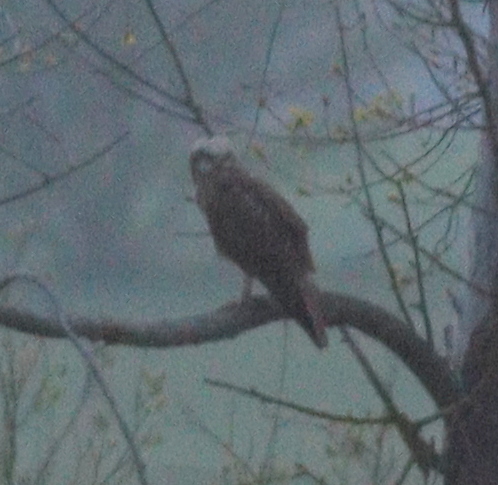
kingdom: Animalia
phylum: Chordata
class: Aves
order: Accipitriformes
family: Accipitridae
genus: Circus
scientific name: Circus aeruginosus
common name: Western marsh harrier
